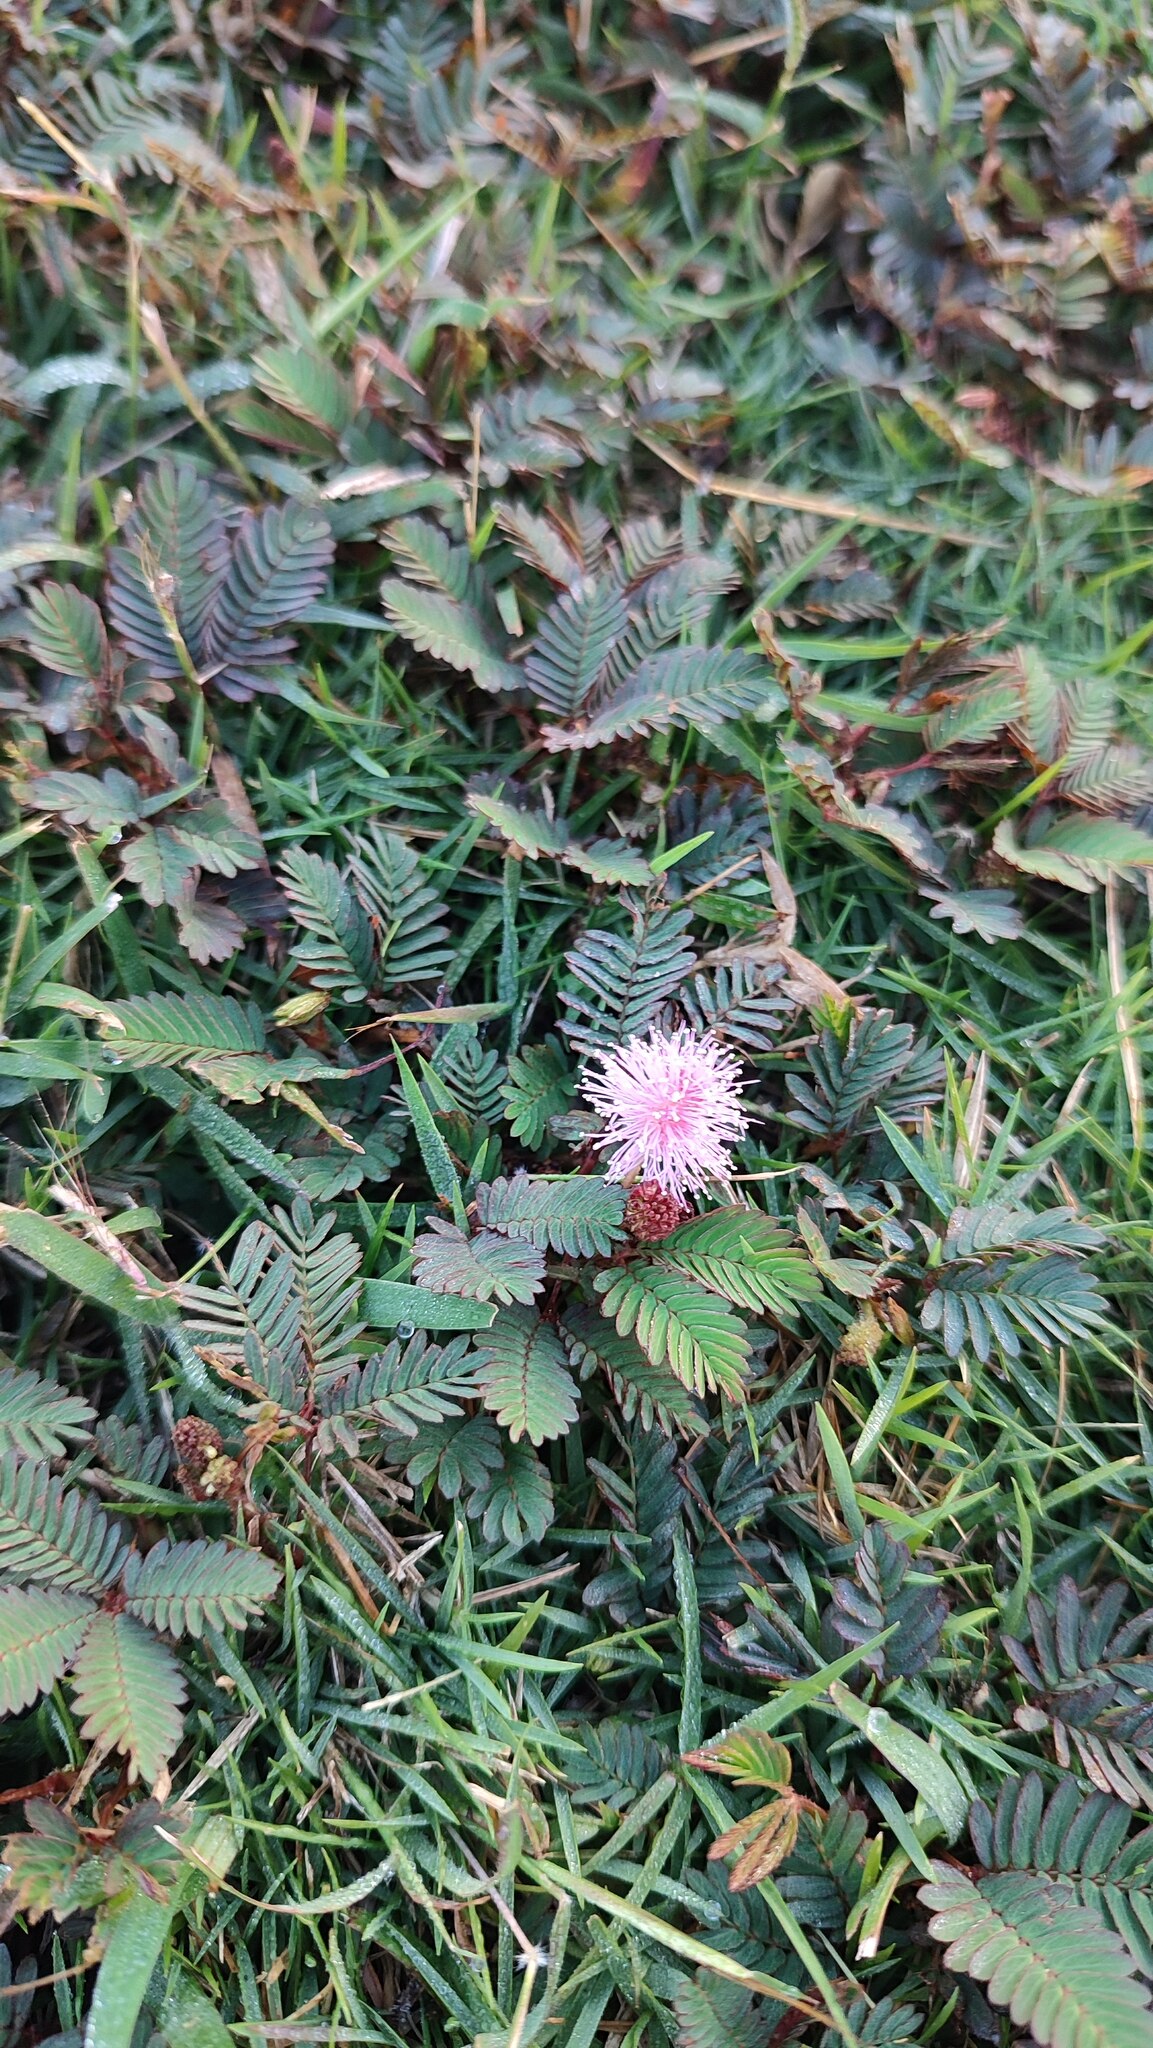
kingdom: Plantae
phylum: Tracheophyta
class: Magnoliopsida
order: Fabales
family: Fabaceae
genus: Mimosa
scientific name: Mimosa pudica
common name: Sensitive plant
